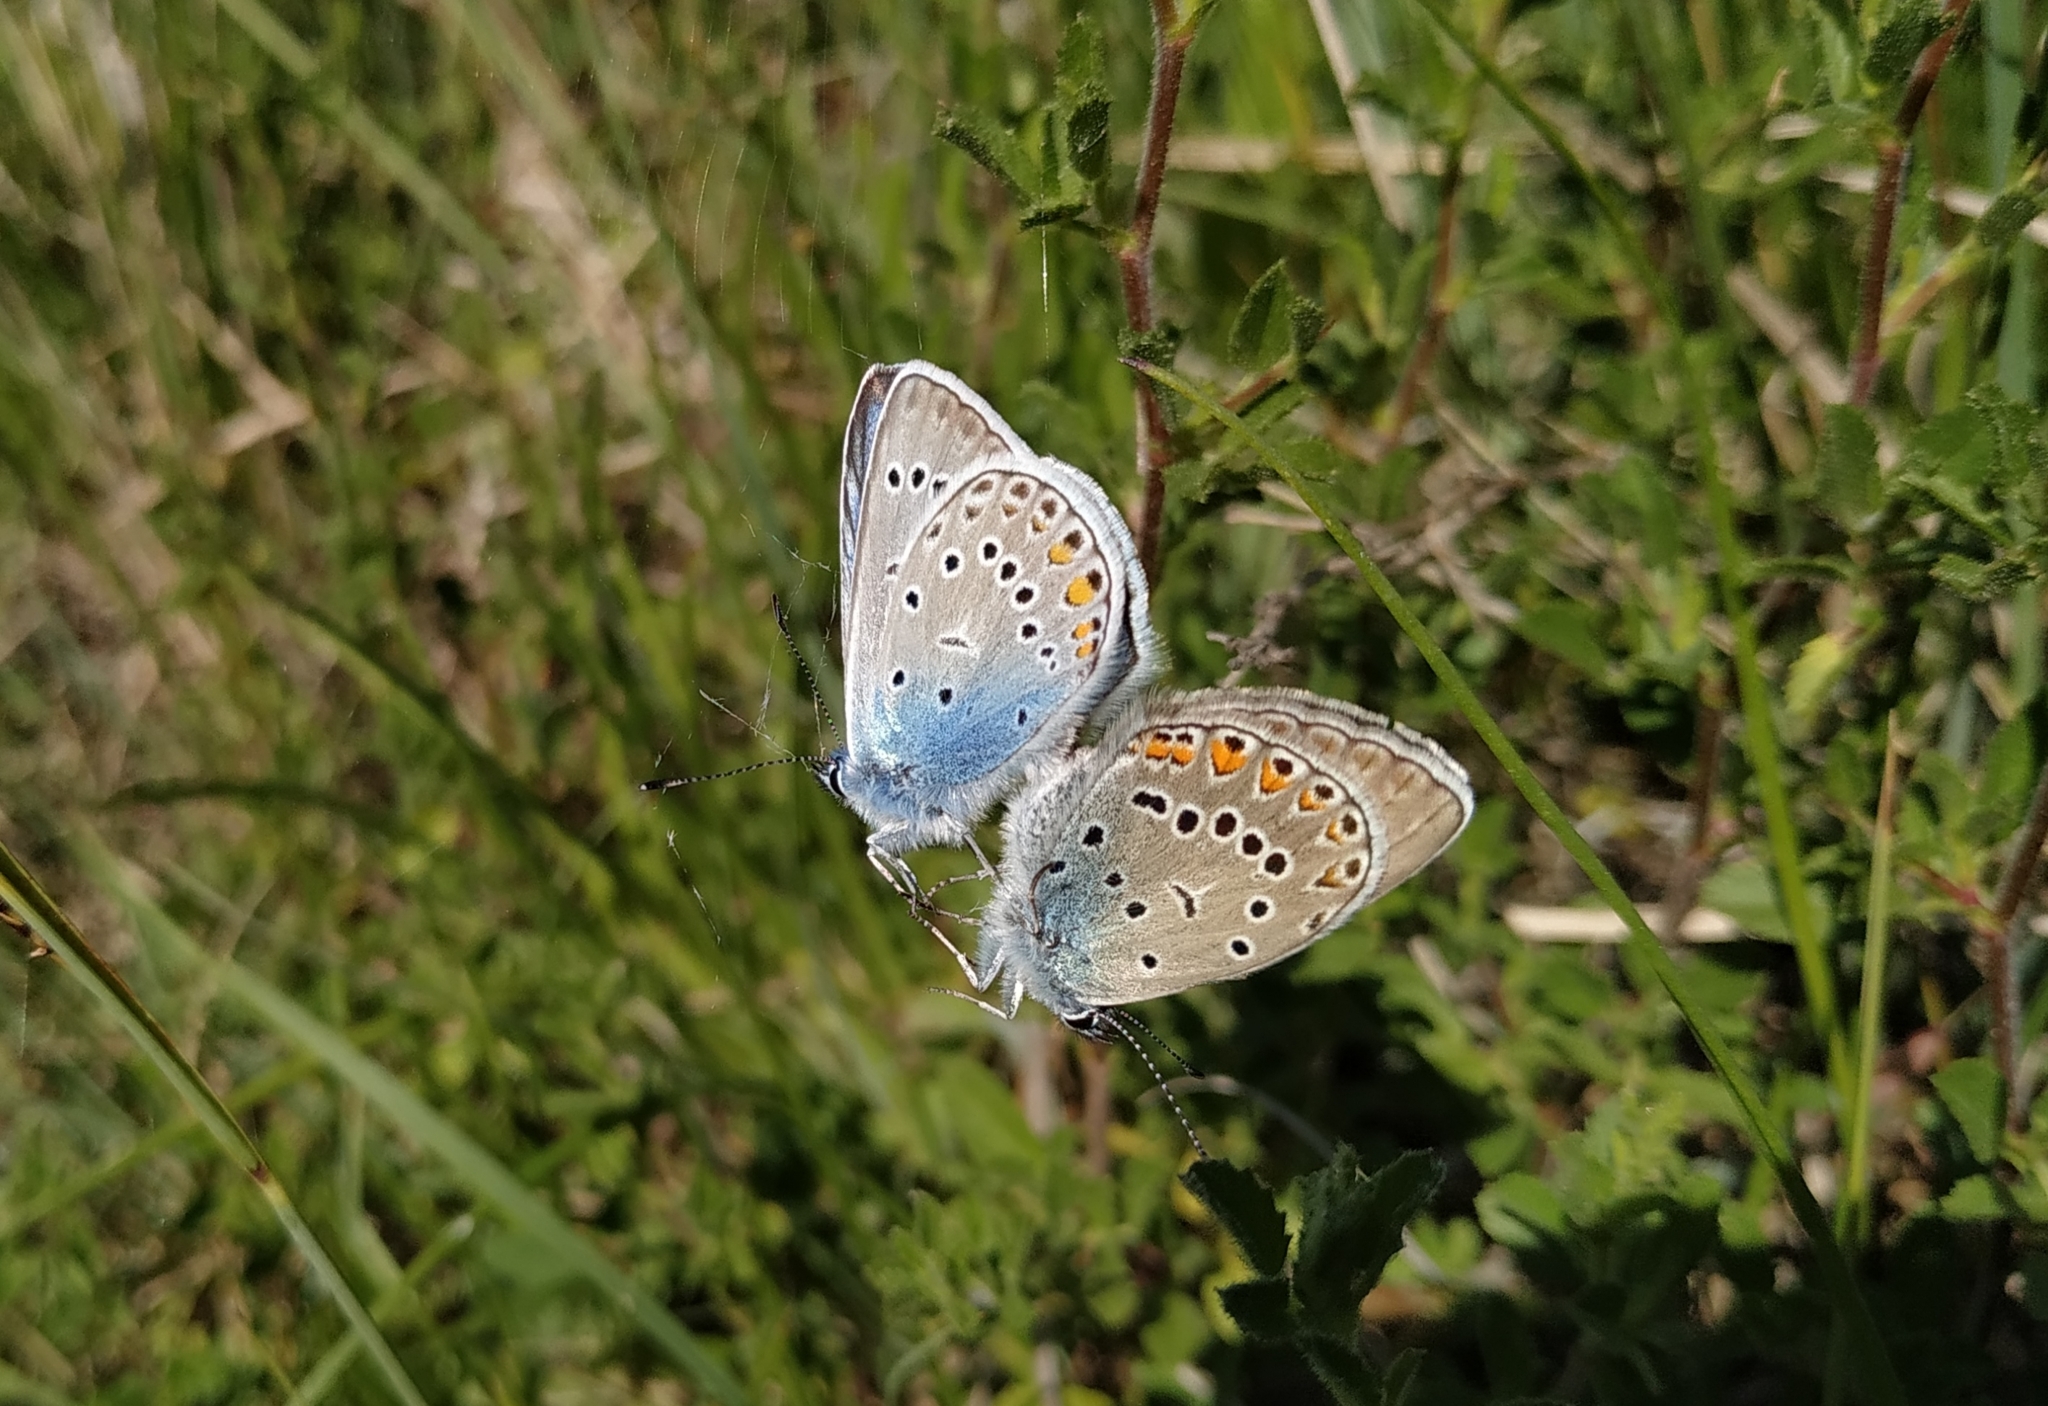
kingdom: Animalia
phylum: Arthropoda
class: Insecta
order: Lepidoptera
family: Lycaenidae
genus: Plebejus
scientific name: Plebejus amanda
